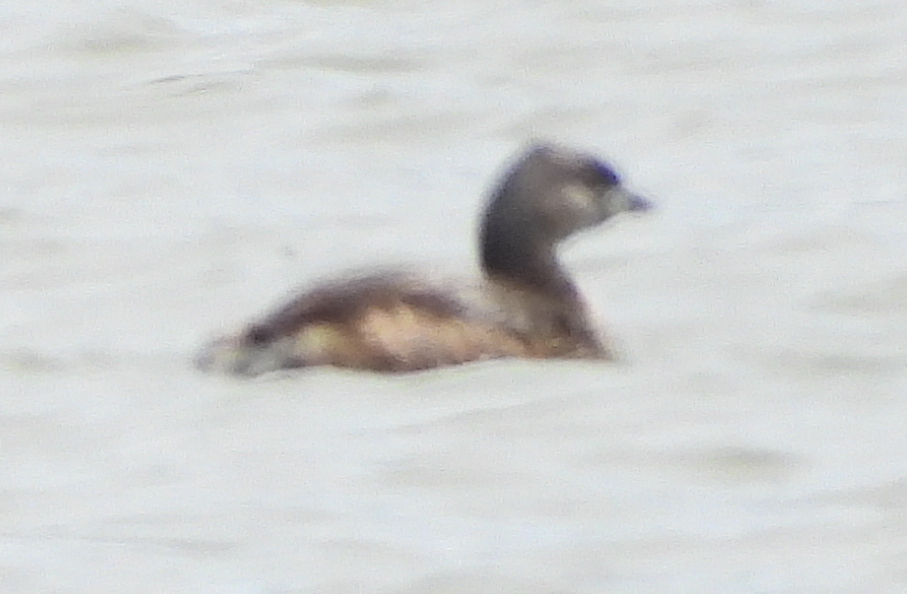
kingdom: Animalia
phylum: Chordata
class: Aves
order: Podicipediformes
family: Podicipedidae
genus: Podilymbus
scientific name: Podilymbus podiceps
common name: Pied-billed grebe
